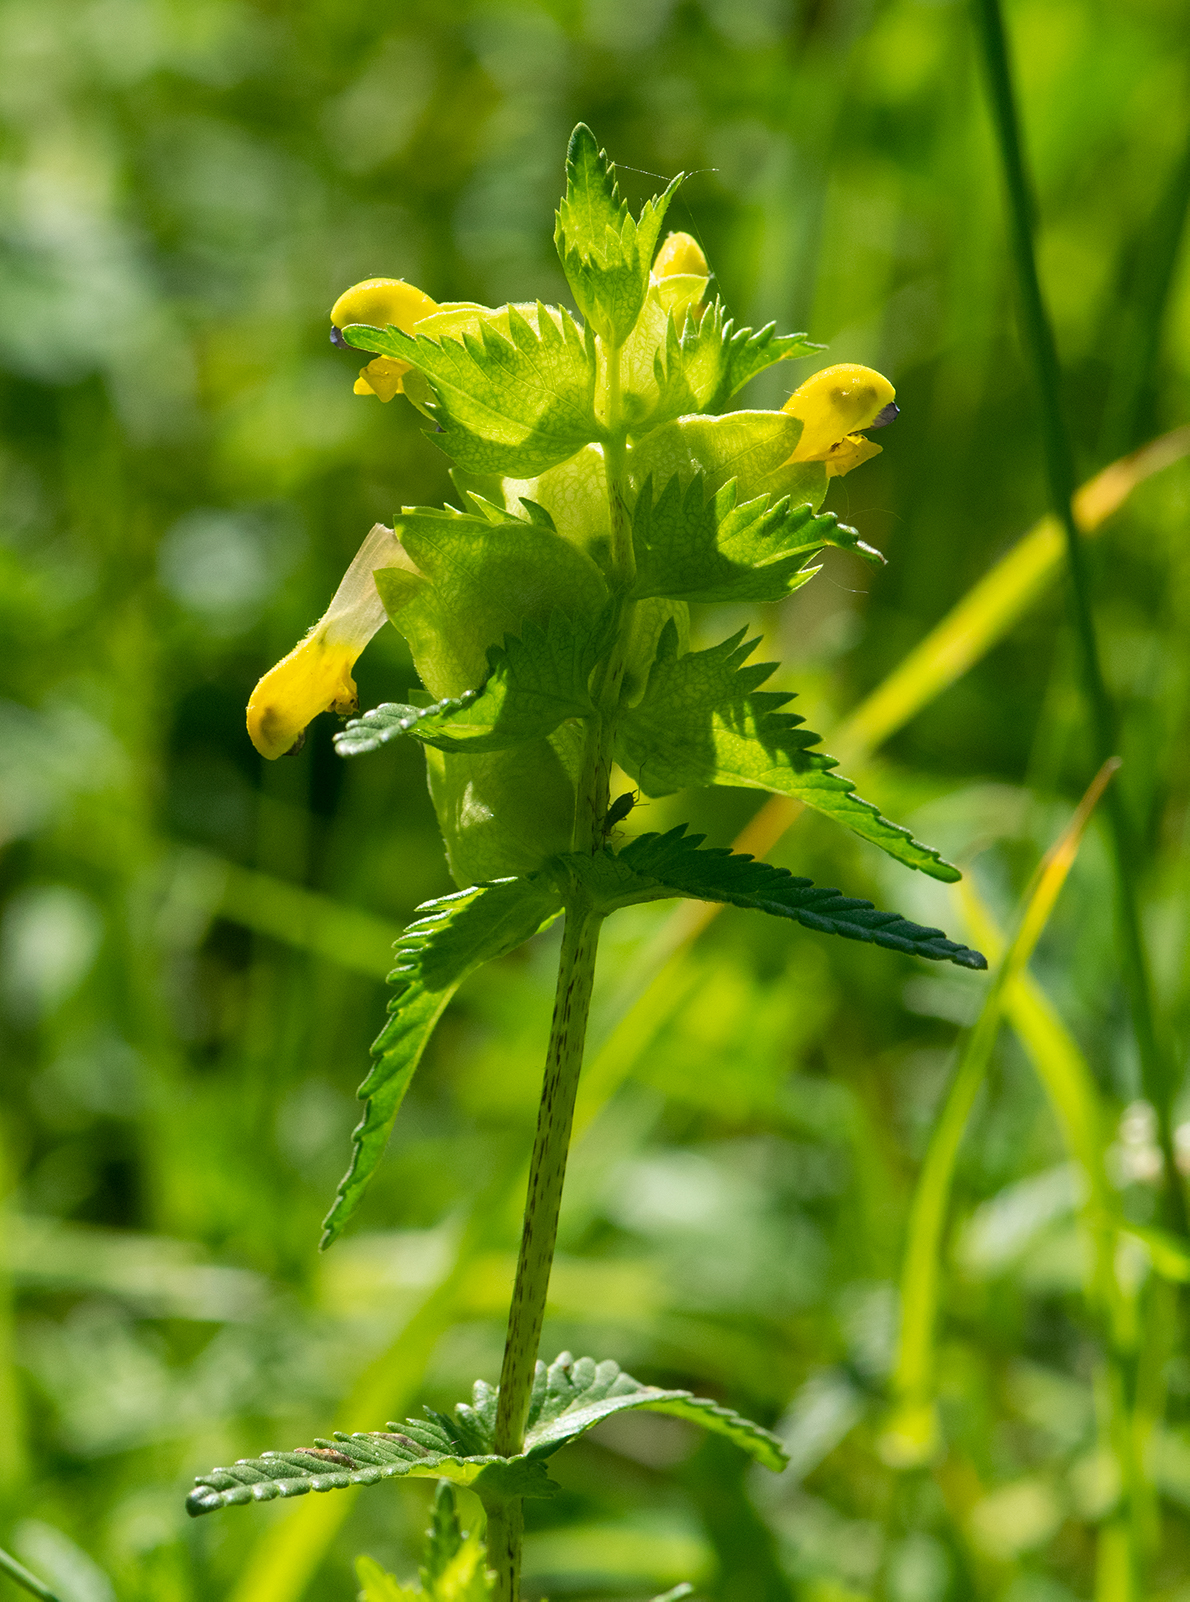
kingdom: Plantae
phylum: Tracheophyta
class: Magnoliopsida
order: Lamiales
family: Orobanchaceae
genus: Rhinanthus
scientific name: Rhinanthus minor
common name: Yellow-rattle
